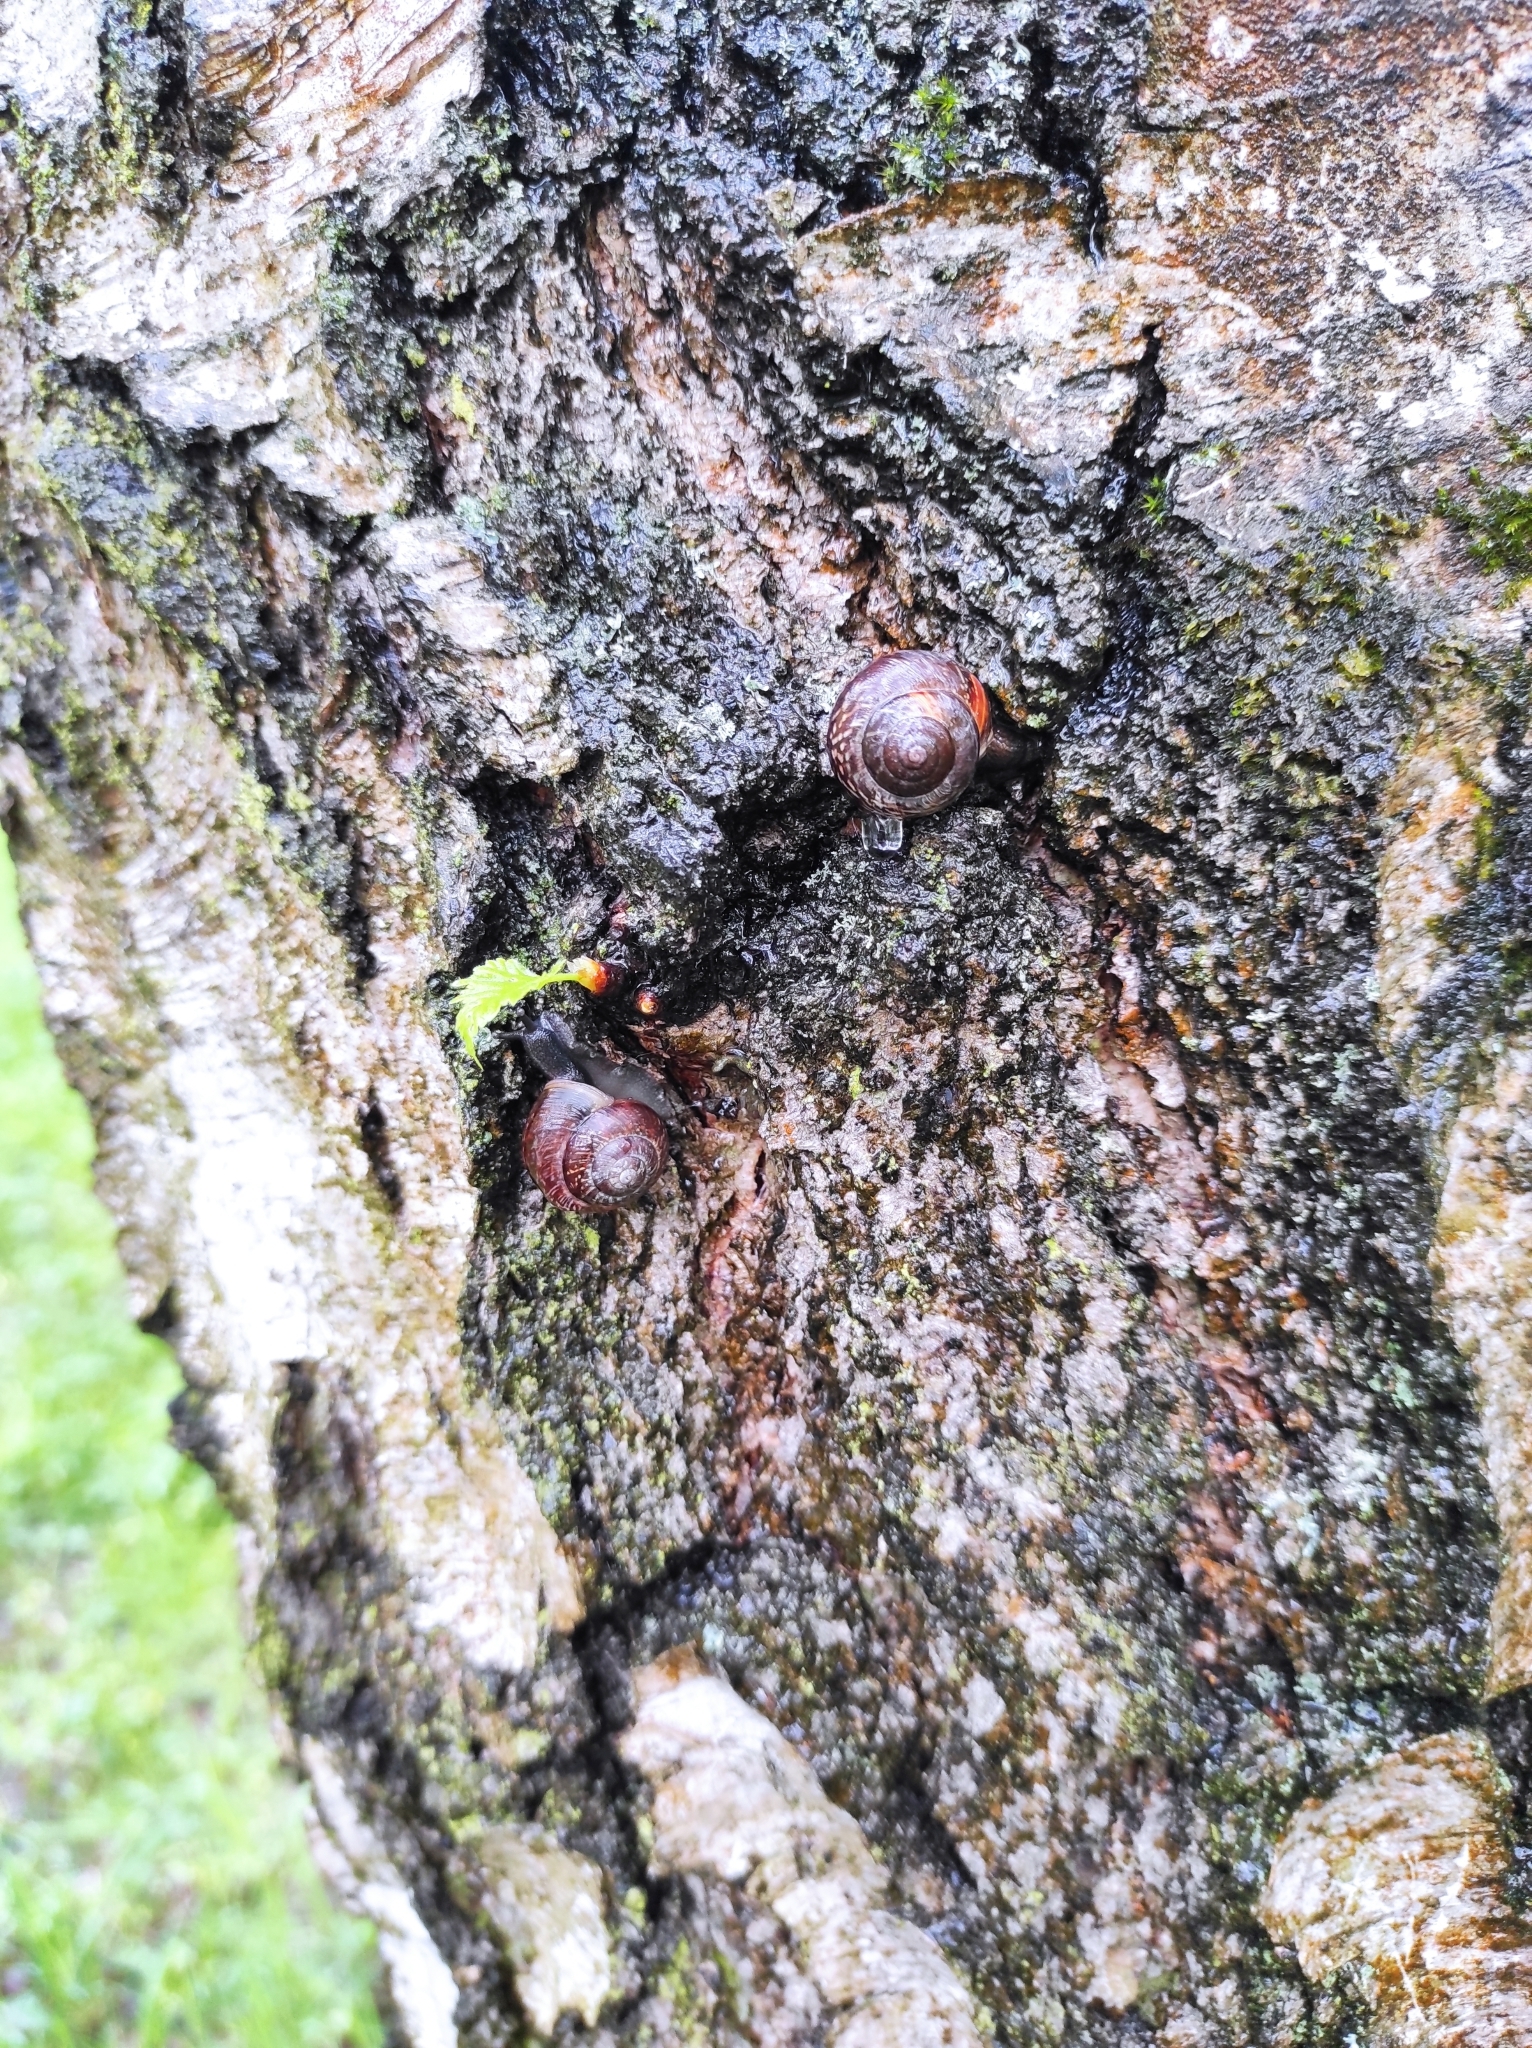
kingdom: Animalia
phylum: Mollusca
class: Gastropoda
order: Stylommatophora
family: Helicidae
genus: Arianta
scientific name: Arianta arbustorum
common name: Copse snail
